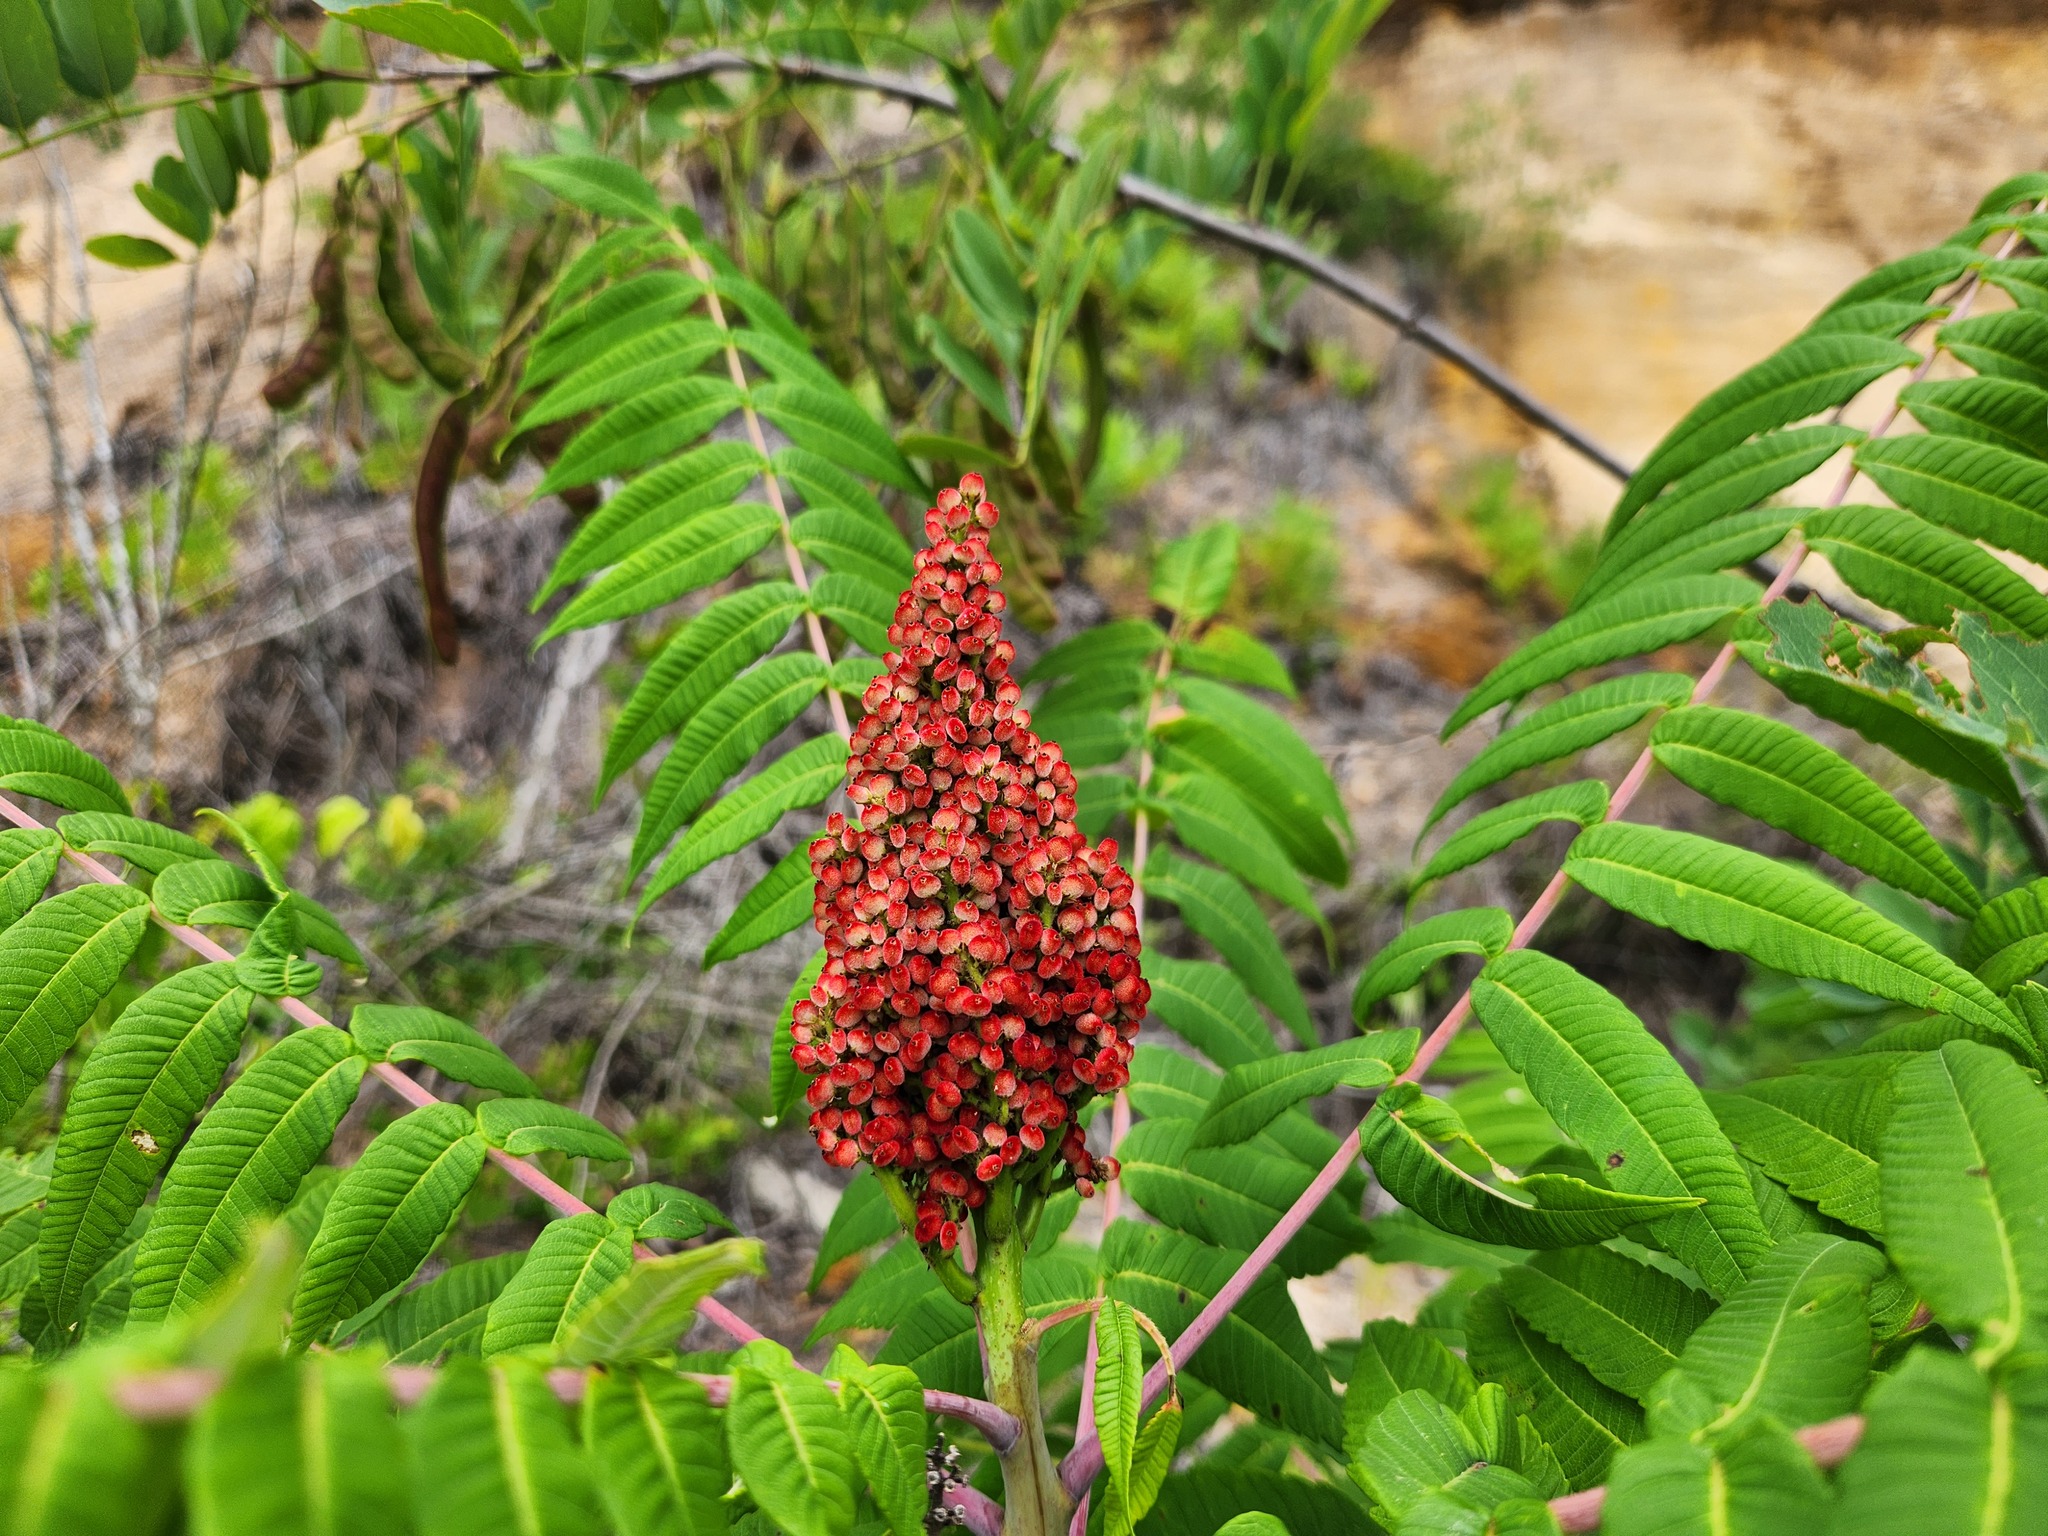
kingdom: Plantae
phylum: Tracheophyta
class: Magnoliopsida
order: Sapindales
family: Anacardiaceae
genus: Rhus
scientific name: Rhus glabra
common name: Scarlet sumac
